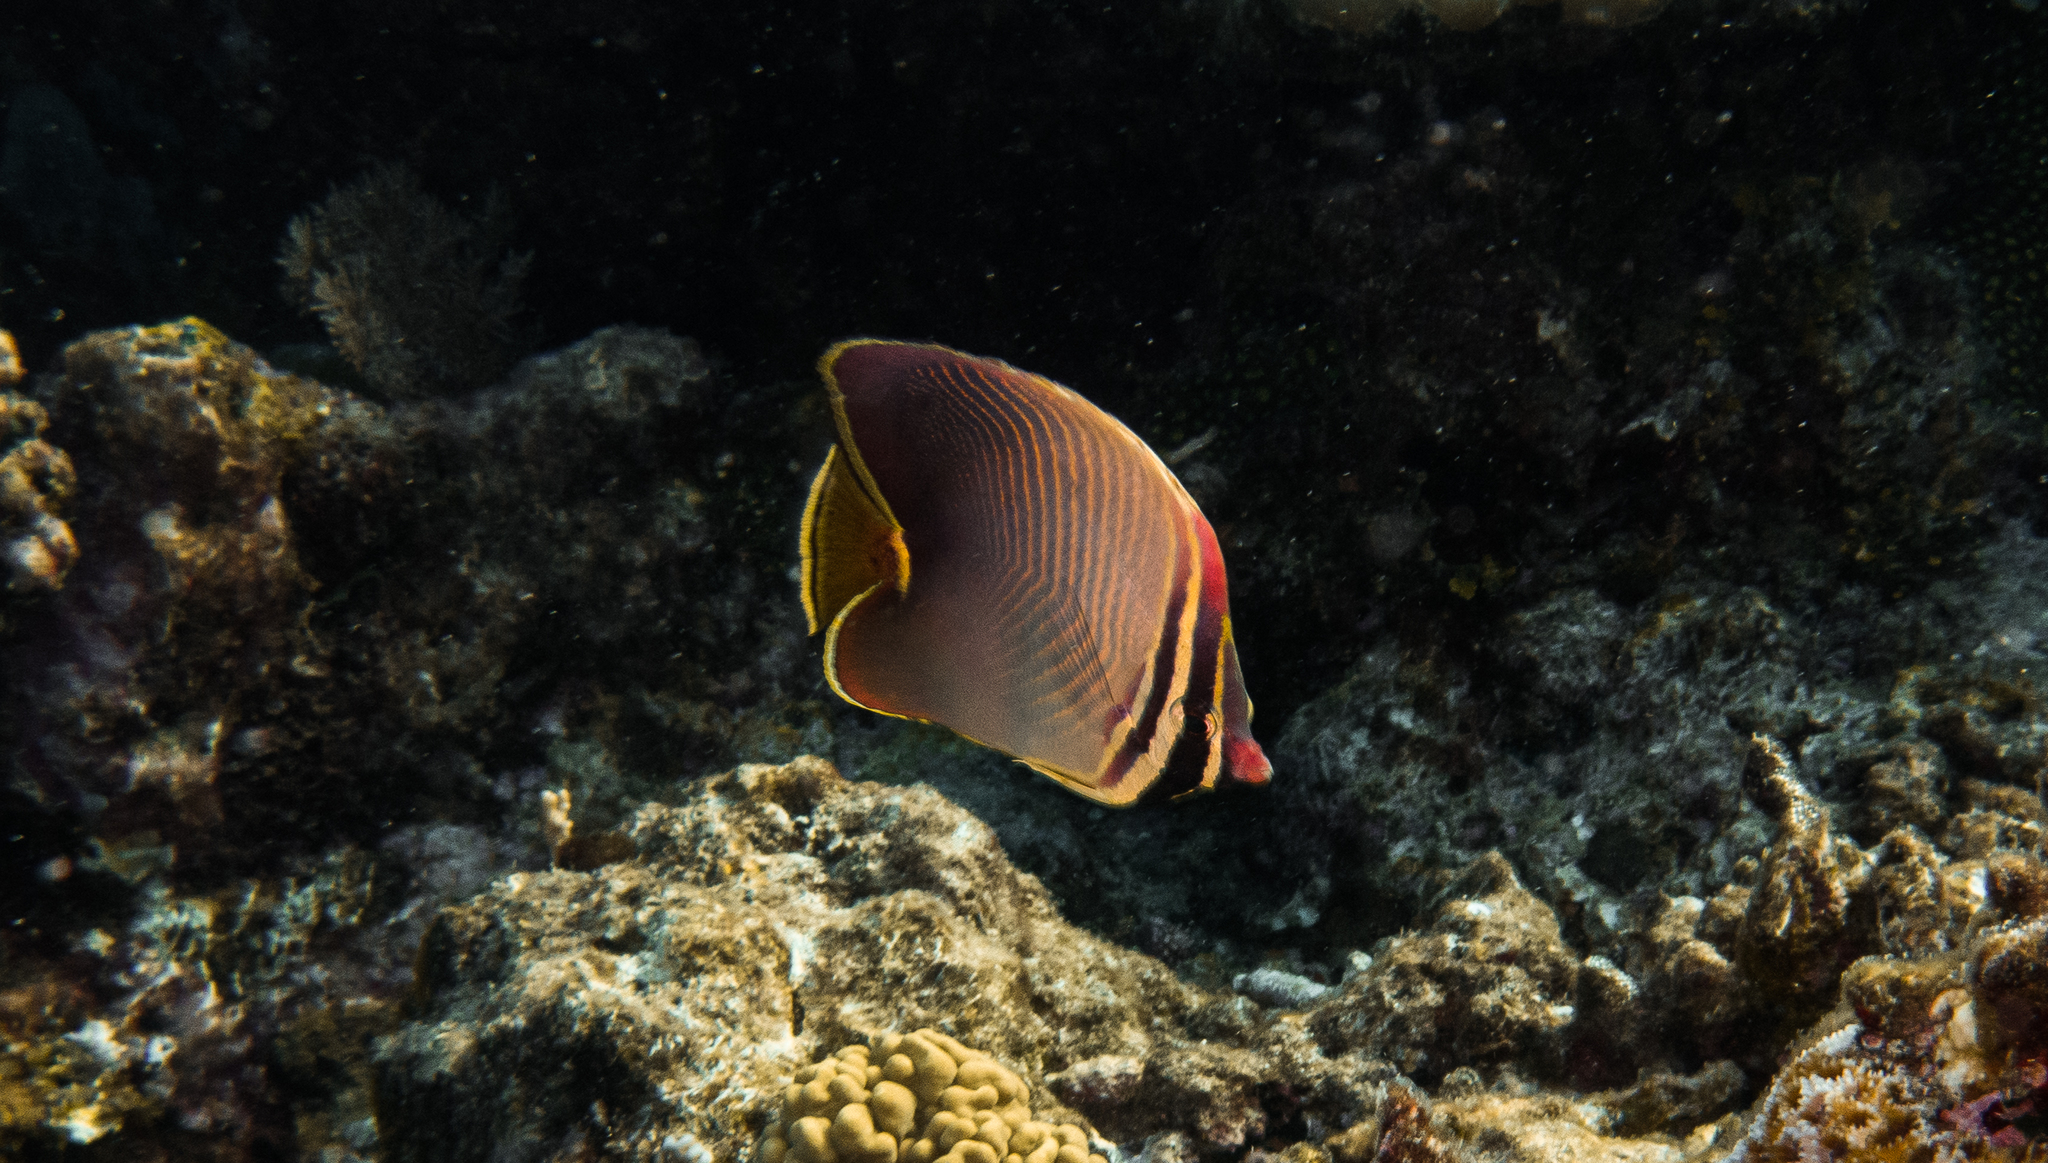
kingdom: Animalia
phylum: Chordata
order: Perciformes
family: Chaetodontidae
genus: Chaetodon
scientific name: Chaetodon baronessa
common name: Triangular butterflyfish
